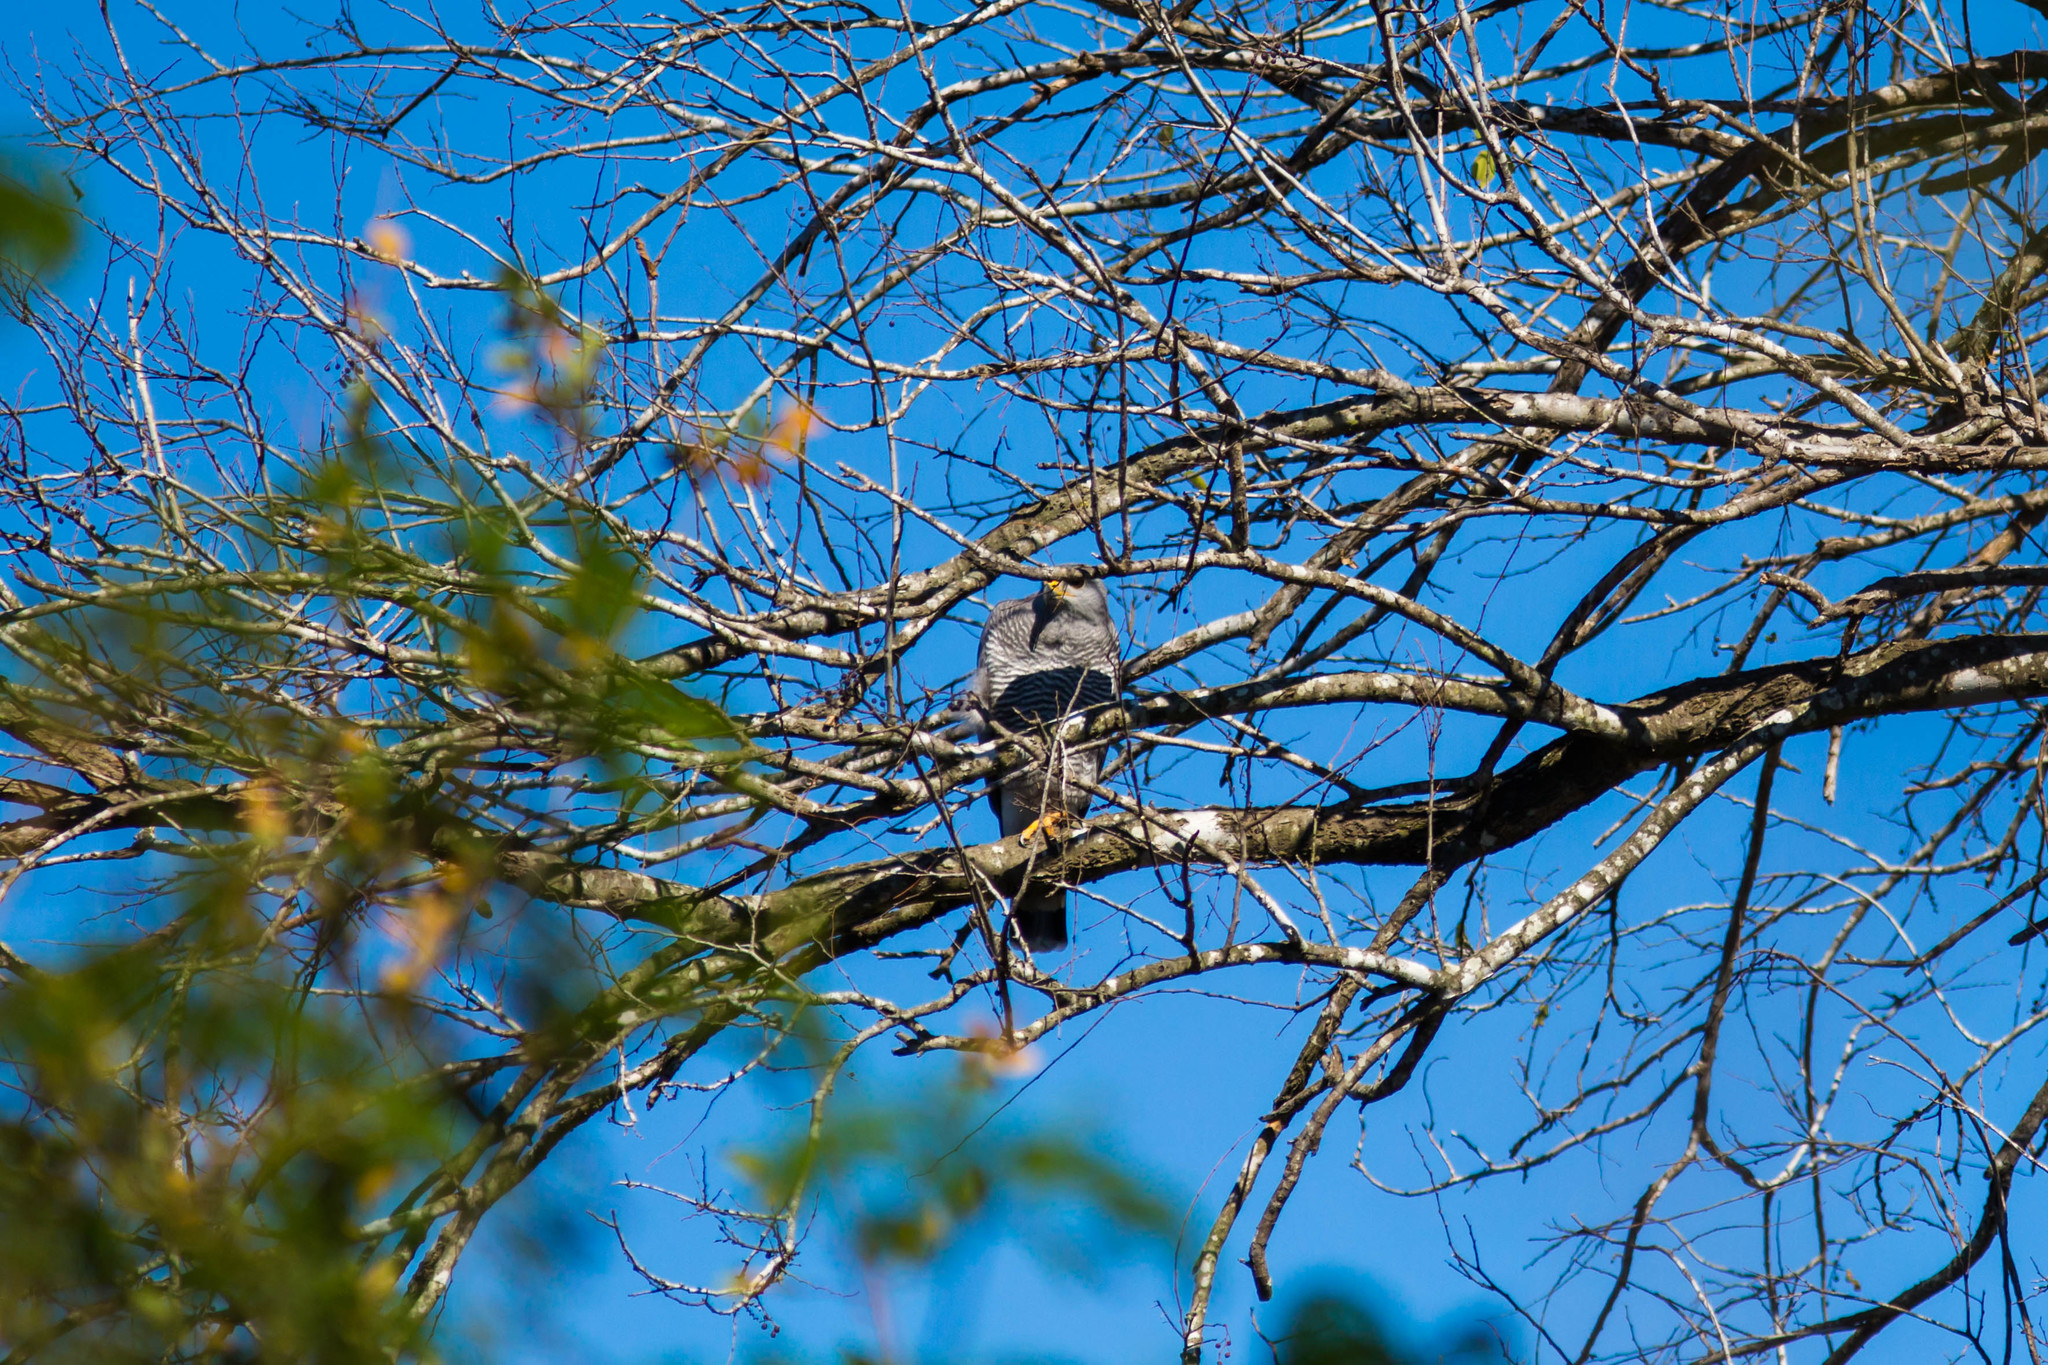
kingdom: Animalia
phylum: Chordata
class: Aves
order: Accipitriformes
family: Accipitridae
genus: Buteo
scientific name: Buteo nitidus
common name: Grey-lined hawk
